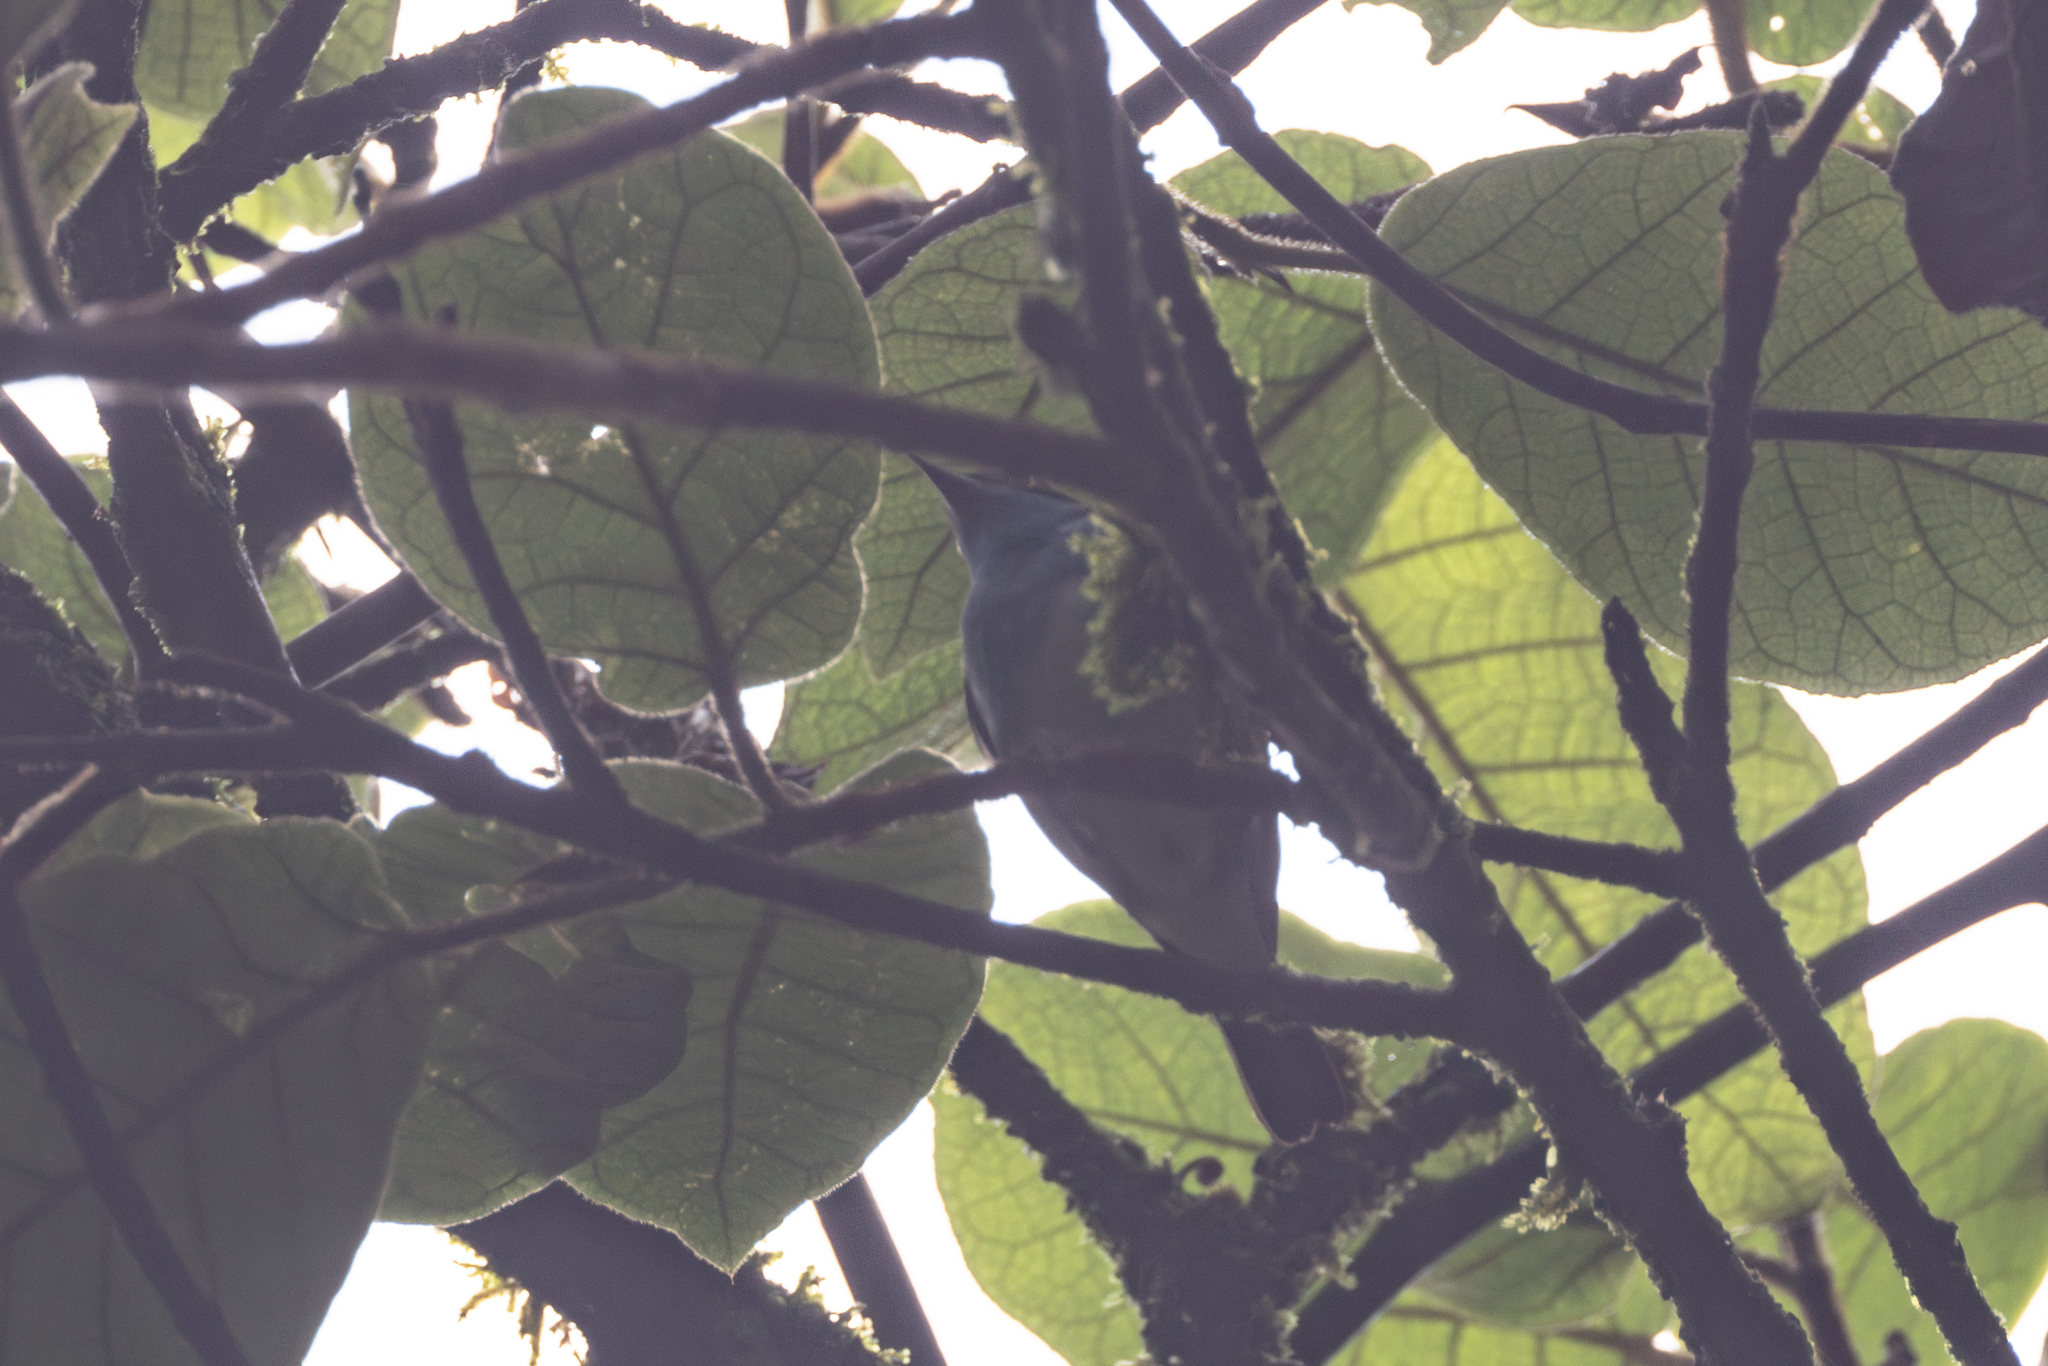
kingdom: Animalia
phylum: Chordata
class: Aves
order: Passeriformes
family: Thraupidae
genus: Dacnis
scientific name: Dacnis lineata
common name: Black-faced dacnis
